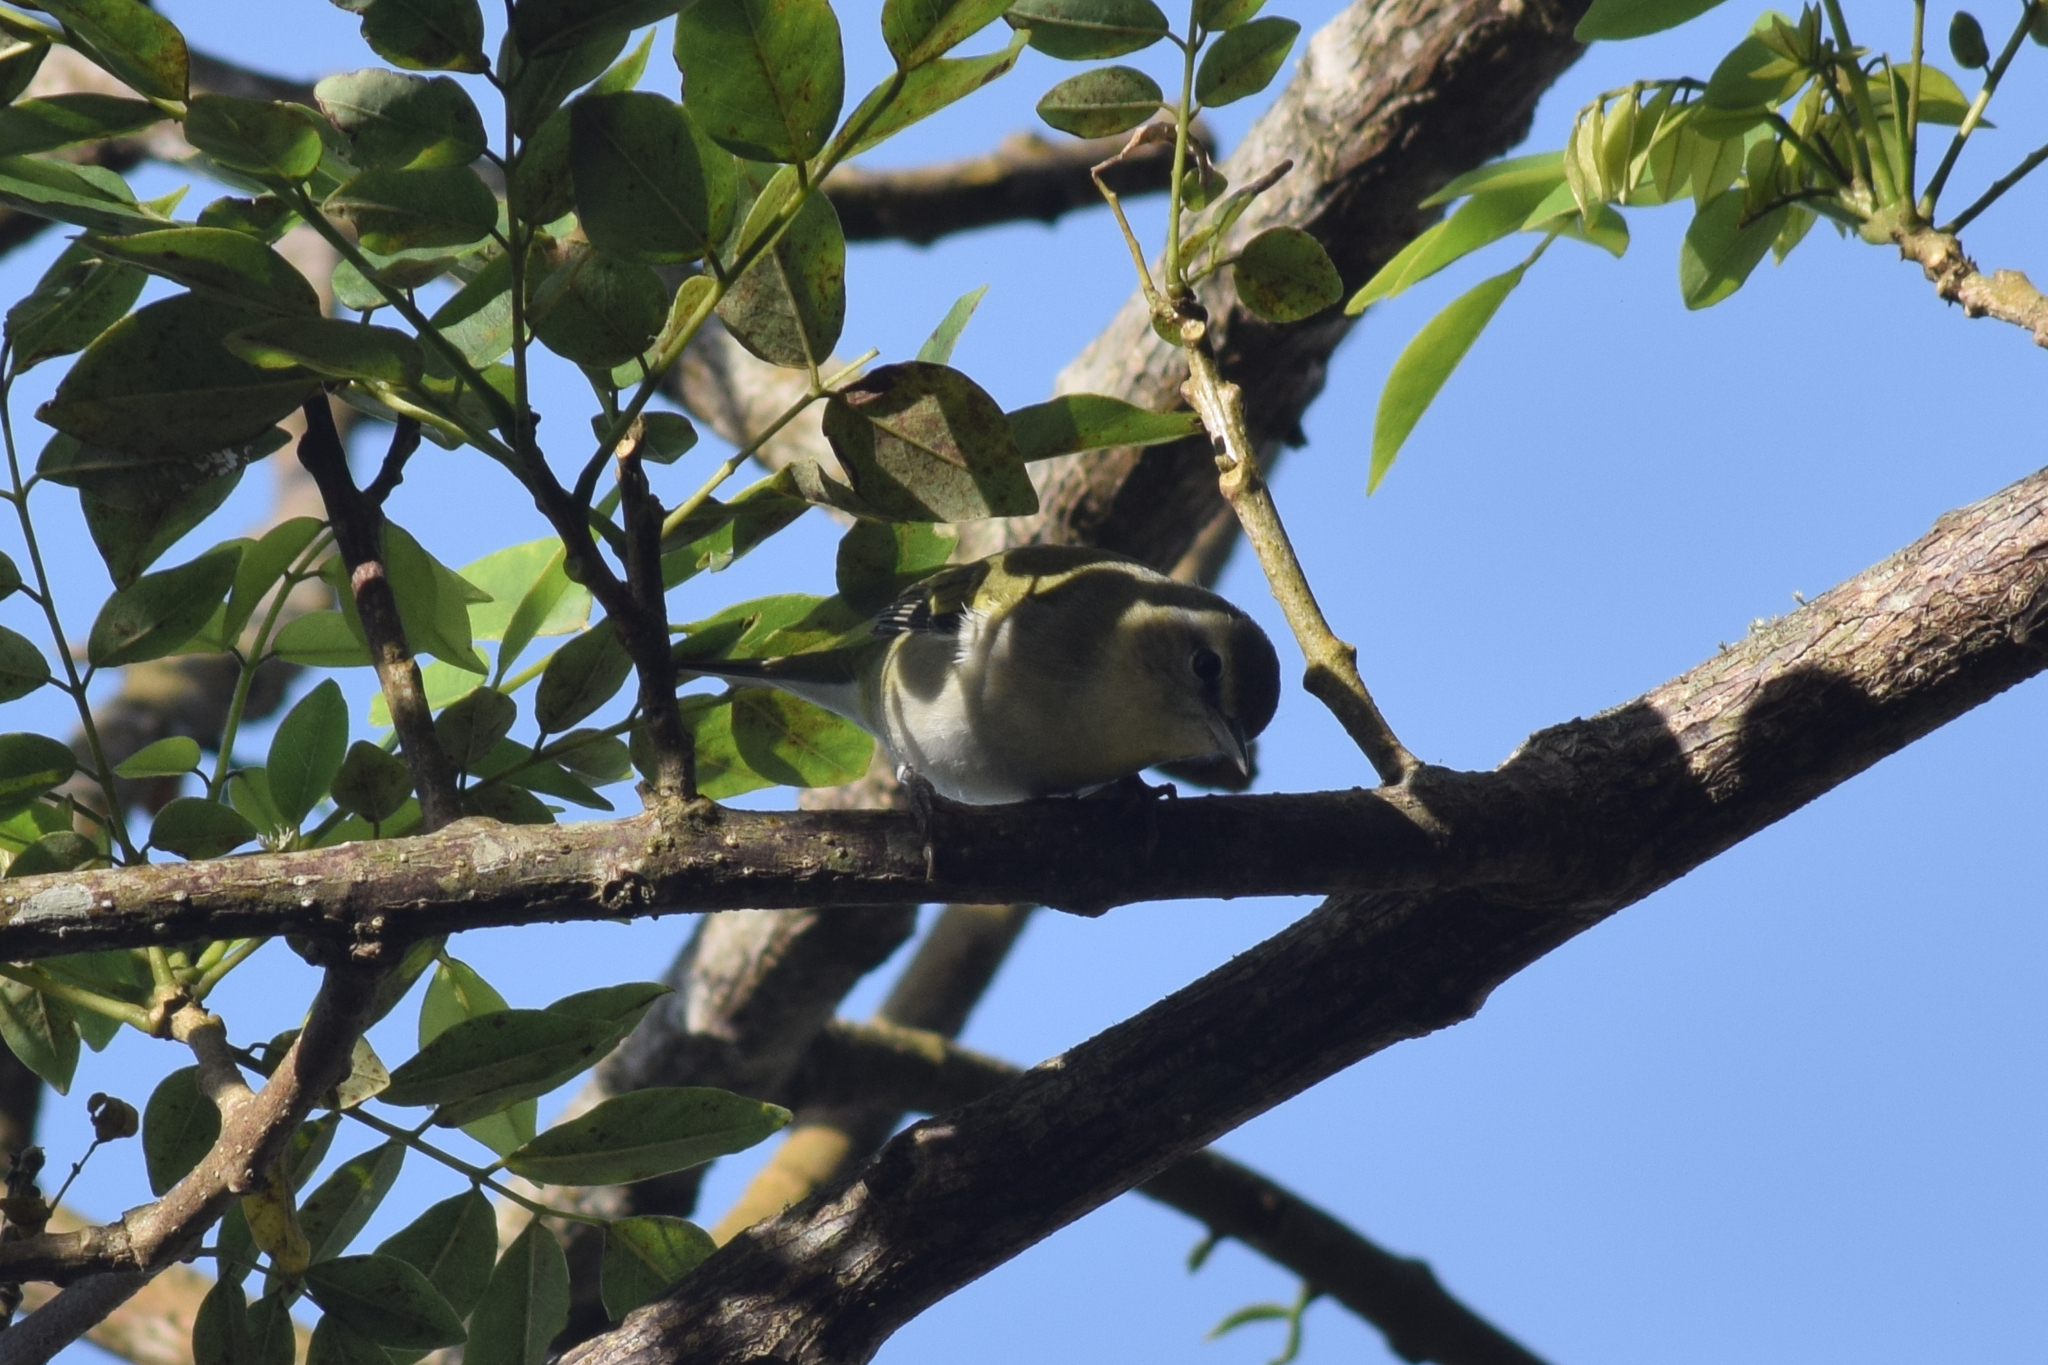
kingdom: Animalia
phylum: Chordata
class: Aves
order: Passeriformes
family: Parulidae
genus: Leiothlypis
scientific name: Leiothlypis peregrina
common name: Tennessee warbler
